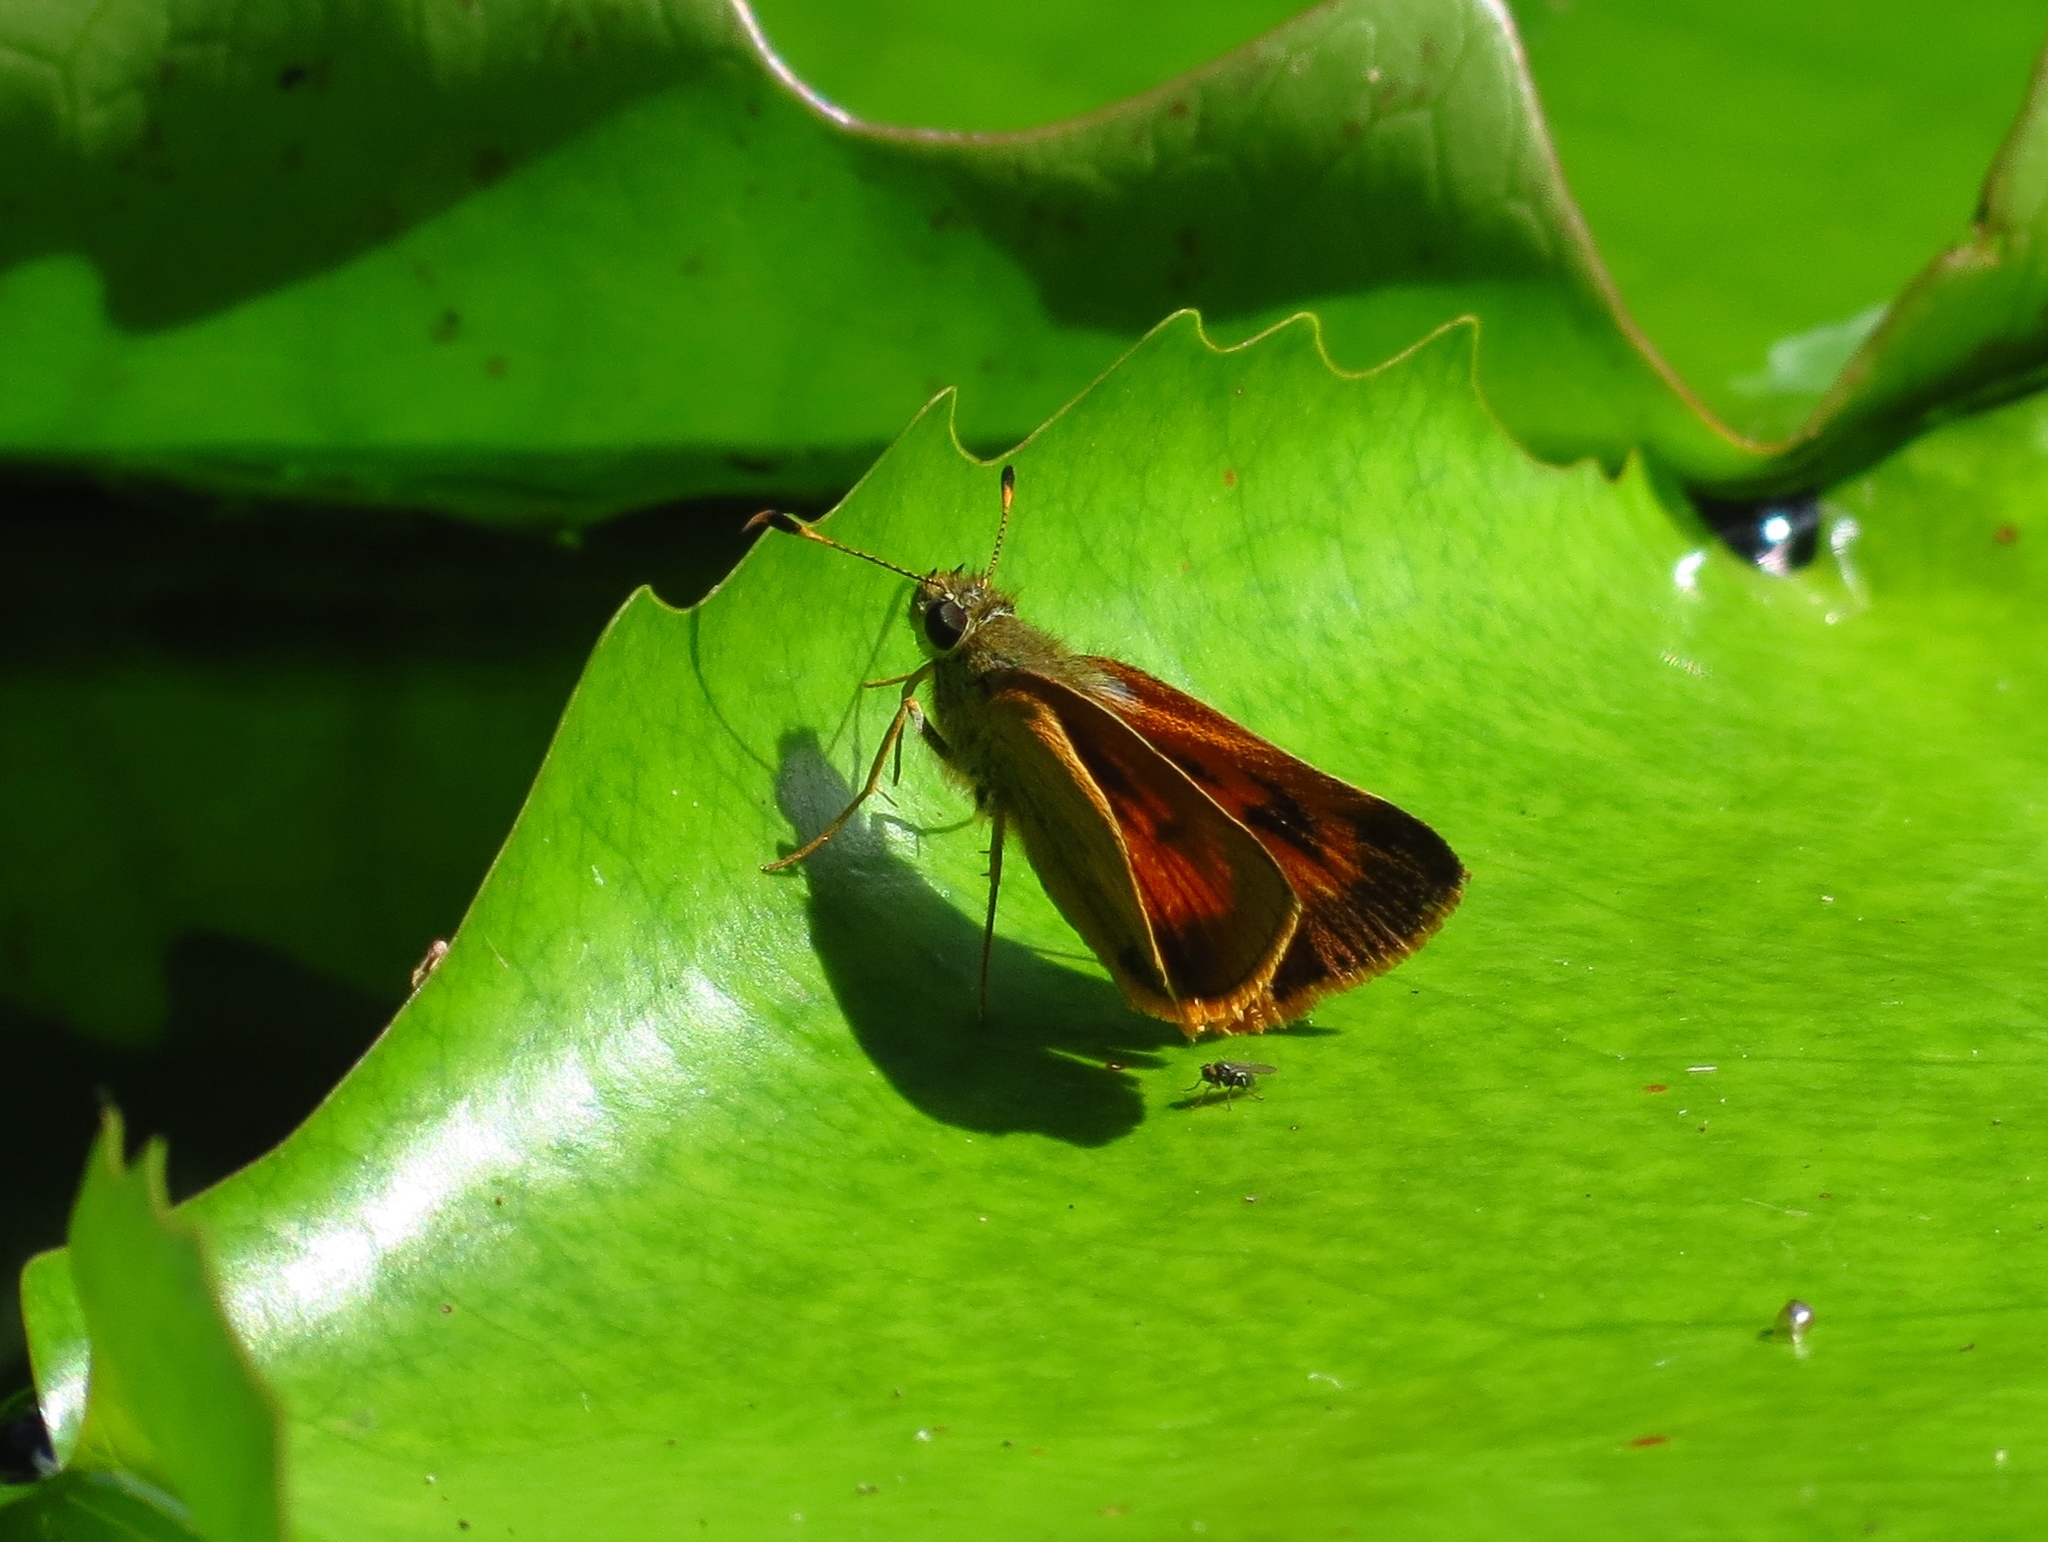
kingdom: Animalia
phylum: Arthropoda
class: Insecta
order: Lepidoptera
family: Hesperiidae
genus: Choranthus
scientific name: Choranthus vitellius
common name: Vitellius skipper
